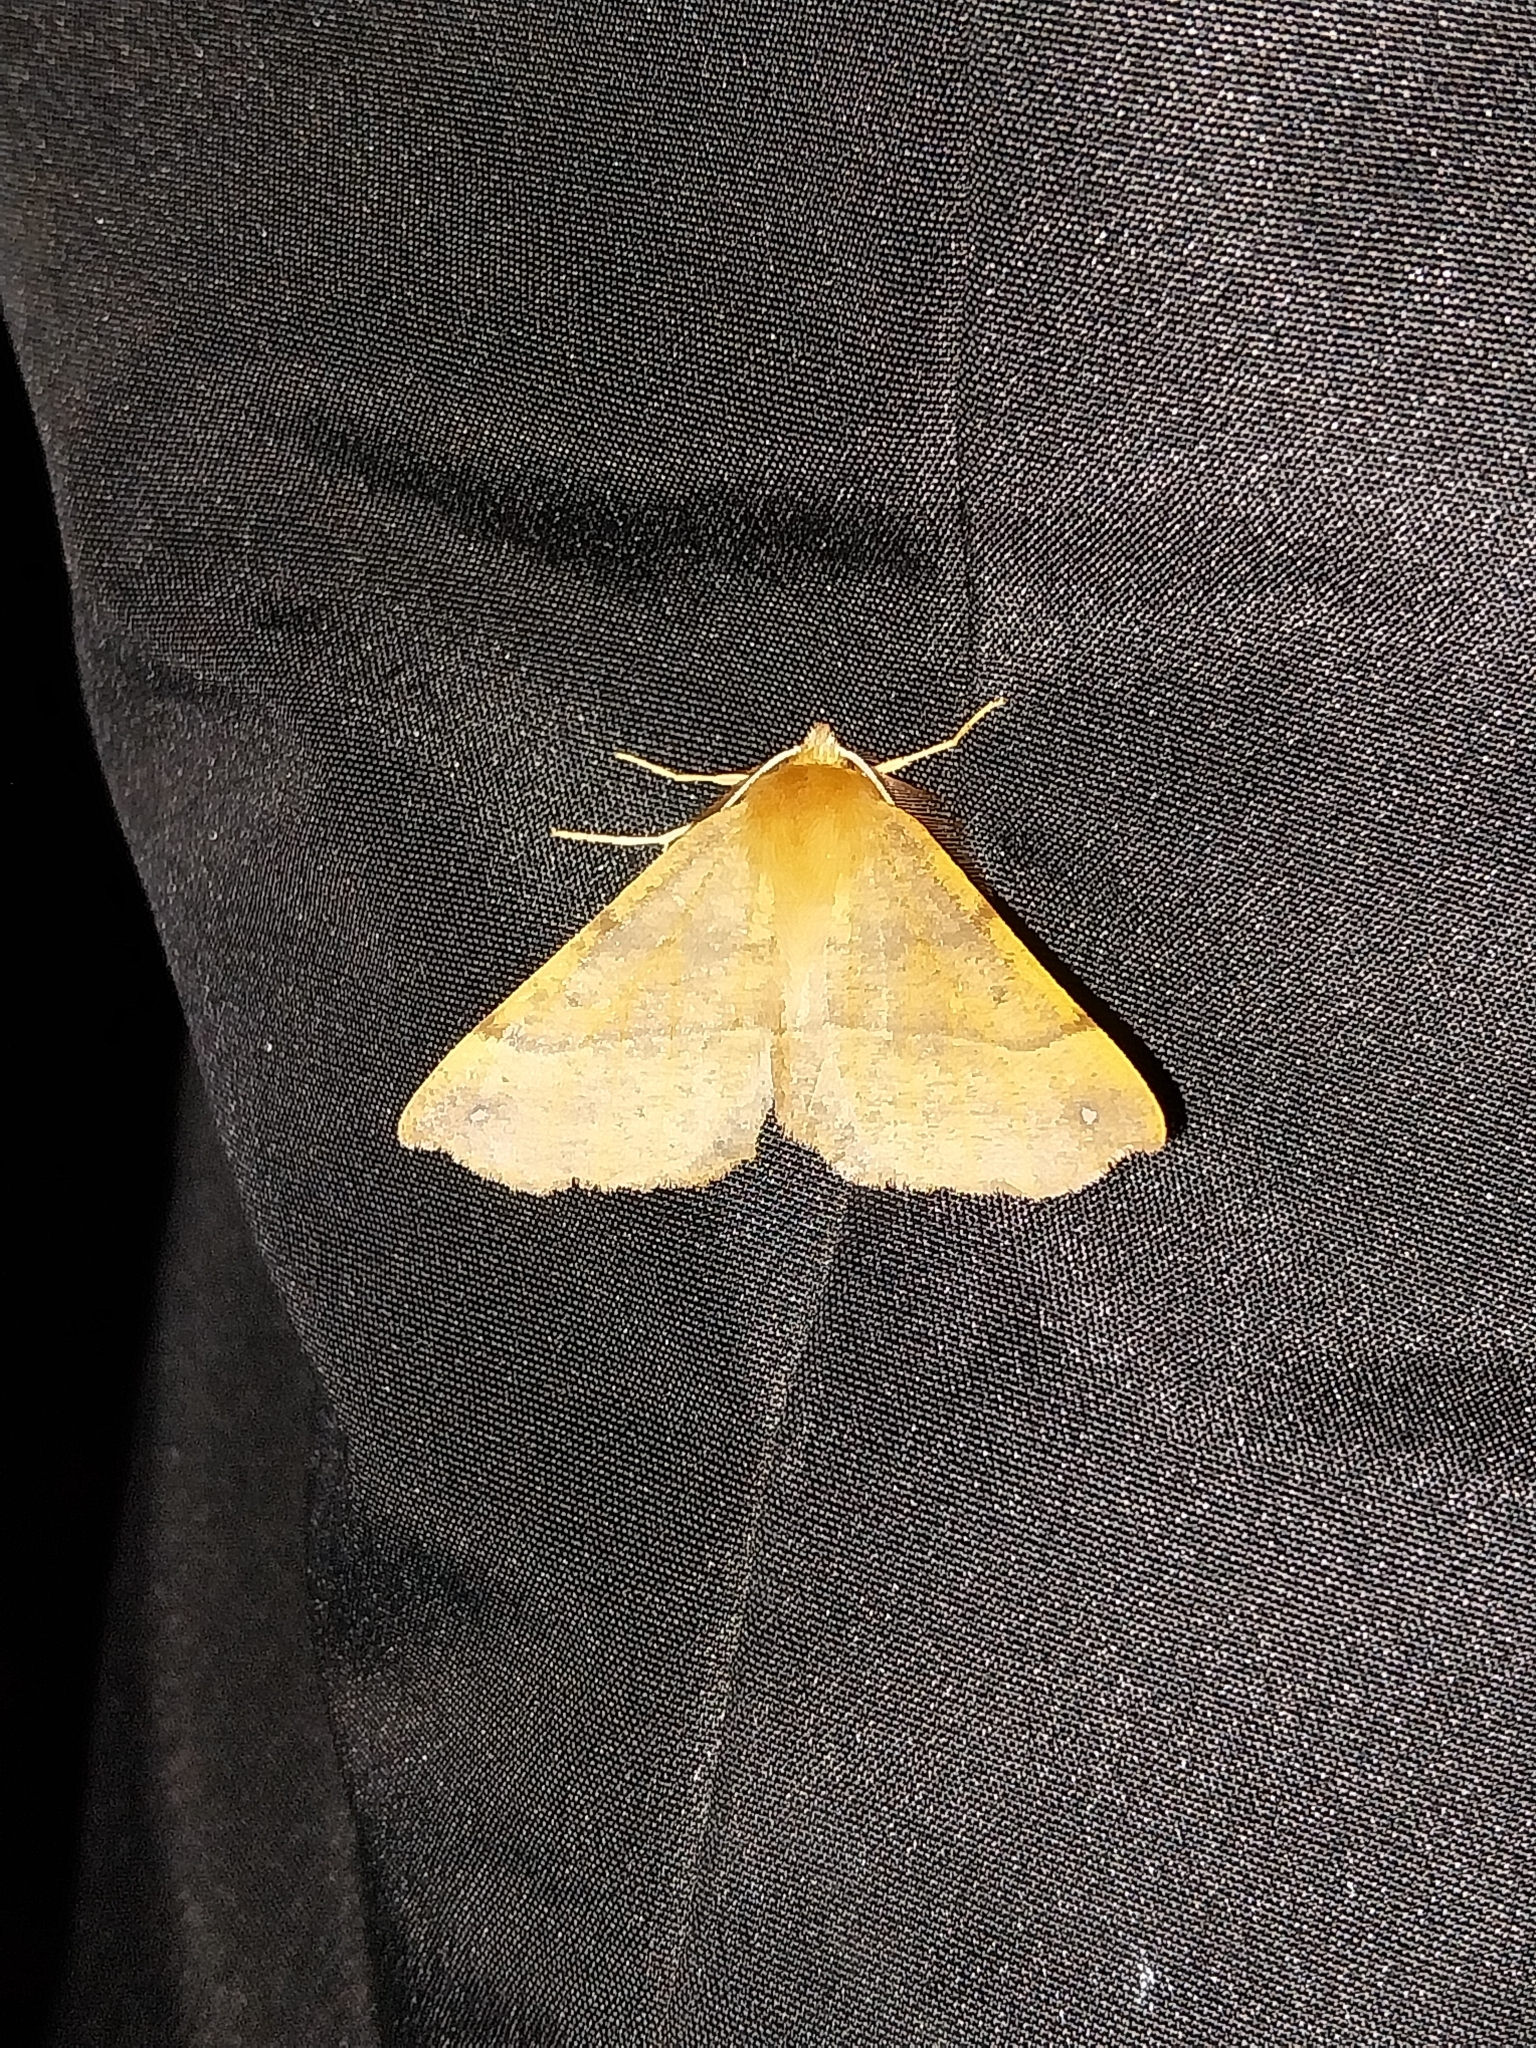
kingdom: Animalia
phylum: Arthropoda
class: Insecta
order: Lepidoptera
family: Geometridae
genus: Colotois
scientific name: Colotois pennaria
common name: Feathered thorn
